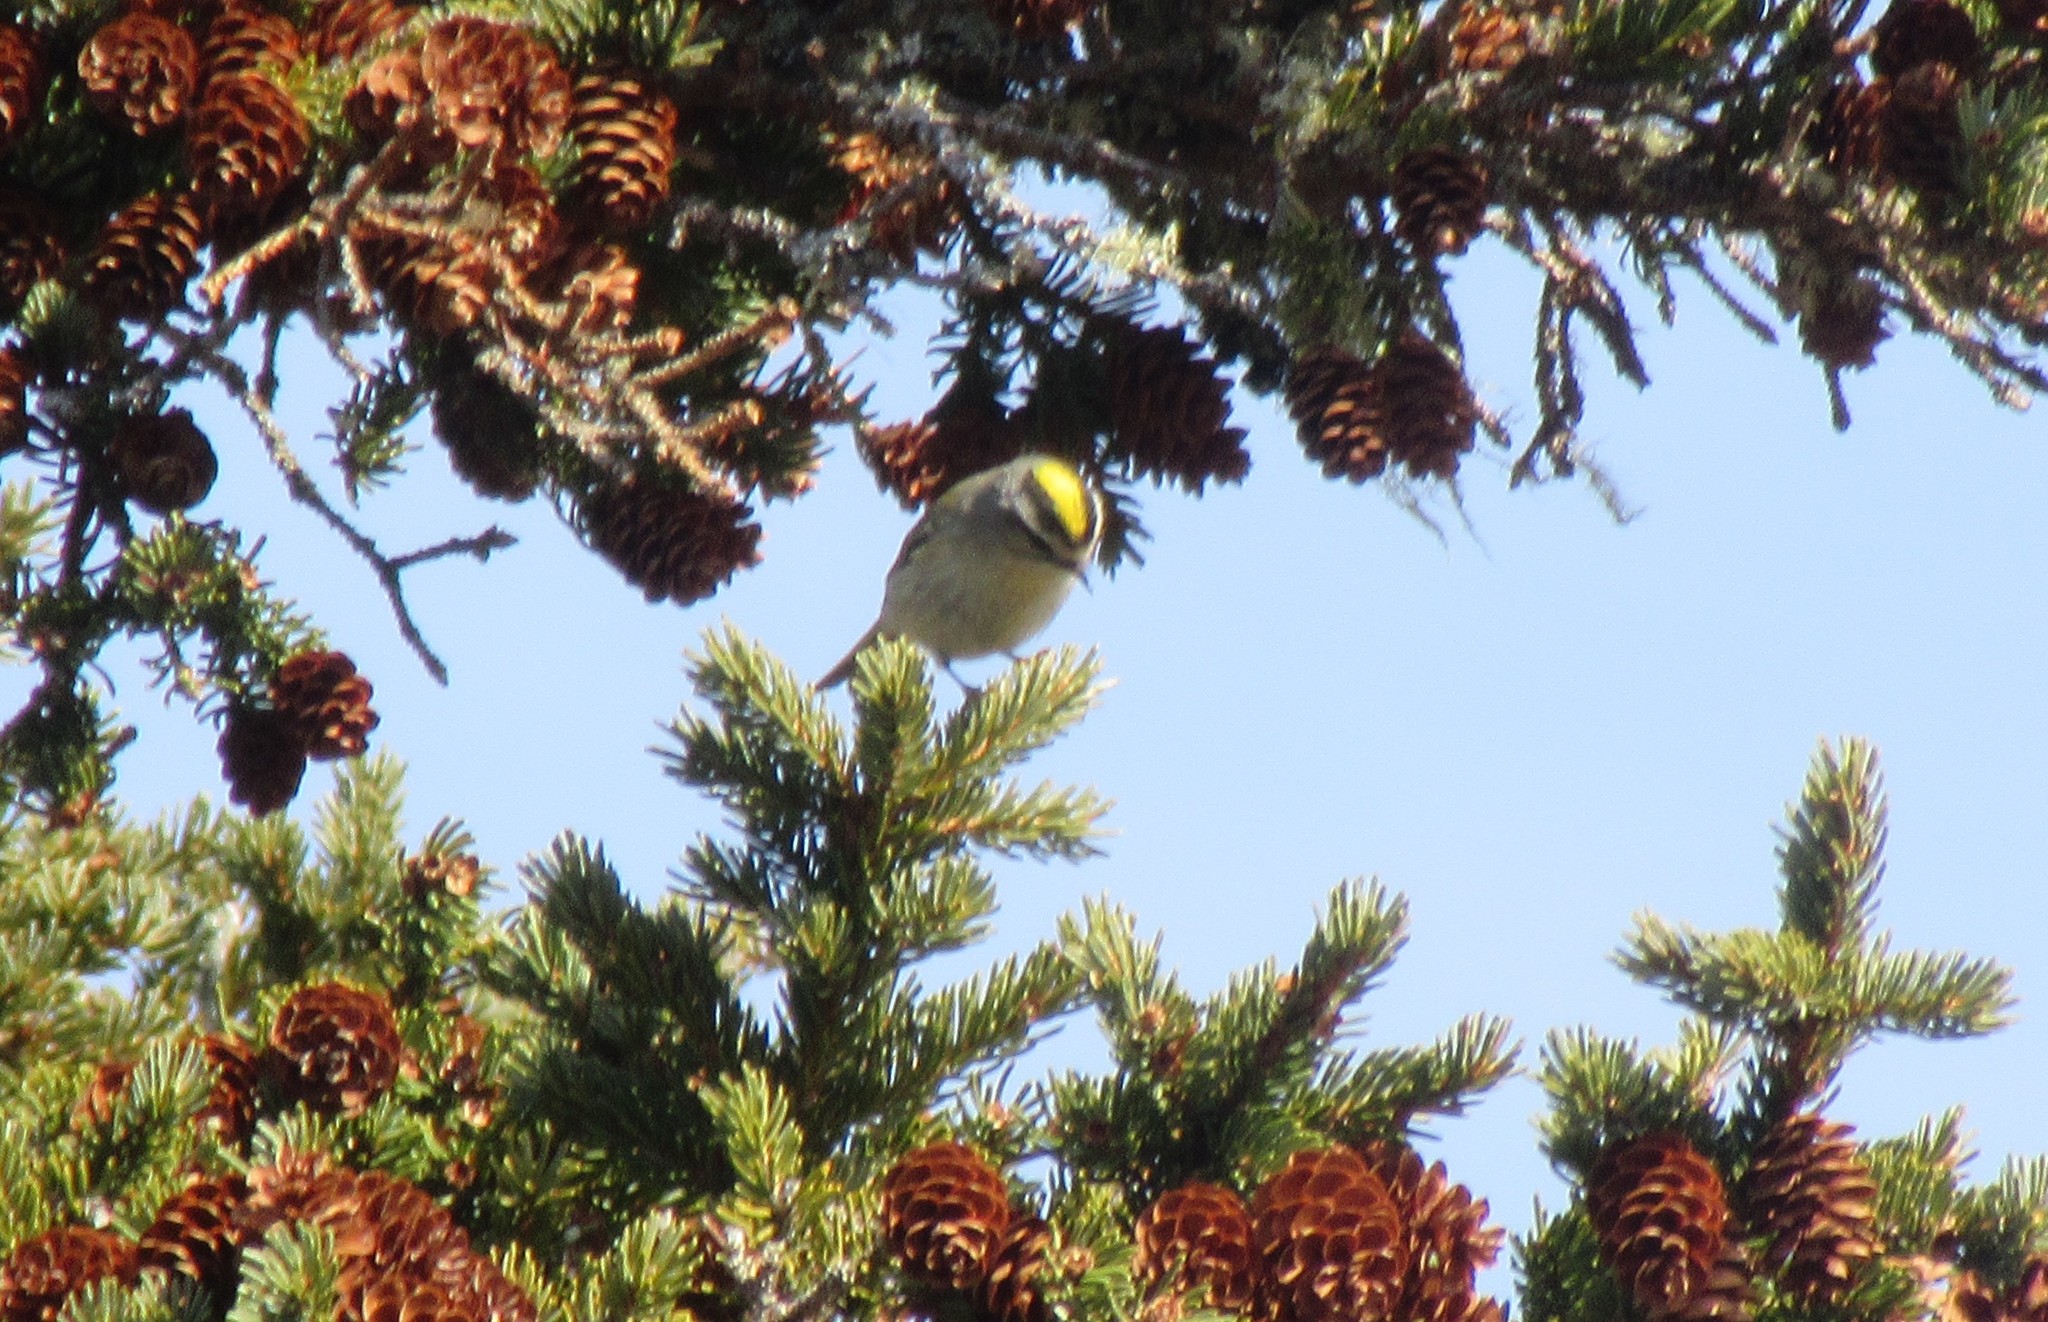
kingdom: Animalia
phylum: Chordata
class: Aves
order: Passeriformes
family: Regulidae
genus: Regulus
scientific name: Regulus satrapa
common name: Golden-crowned kinglet
